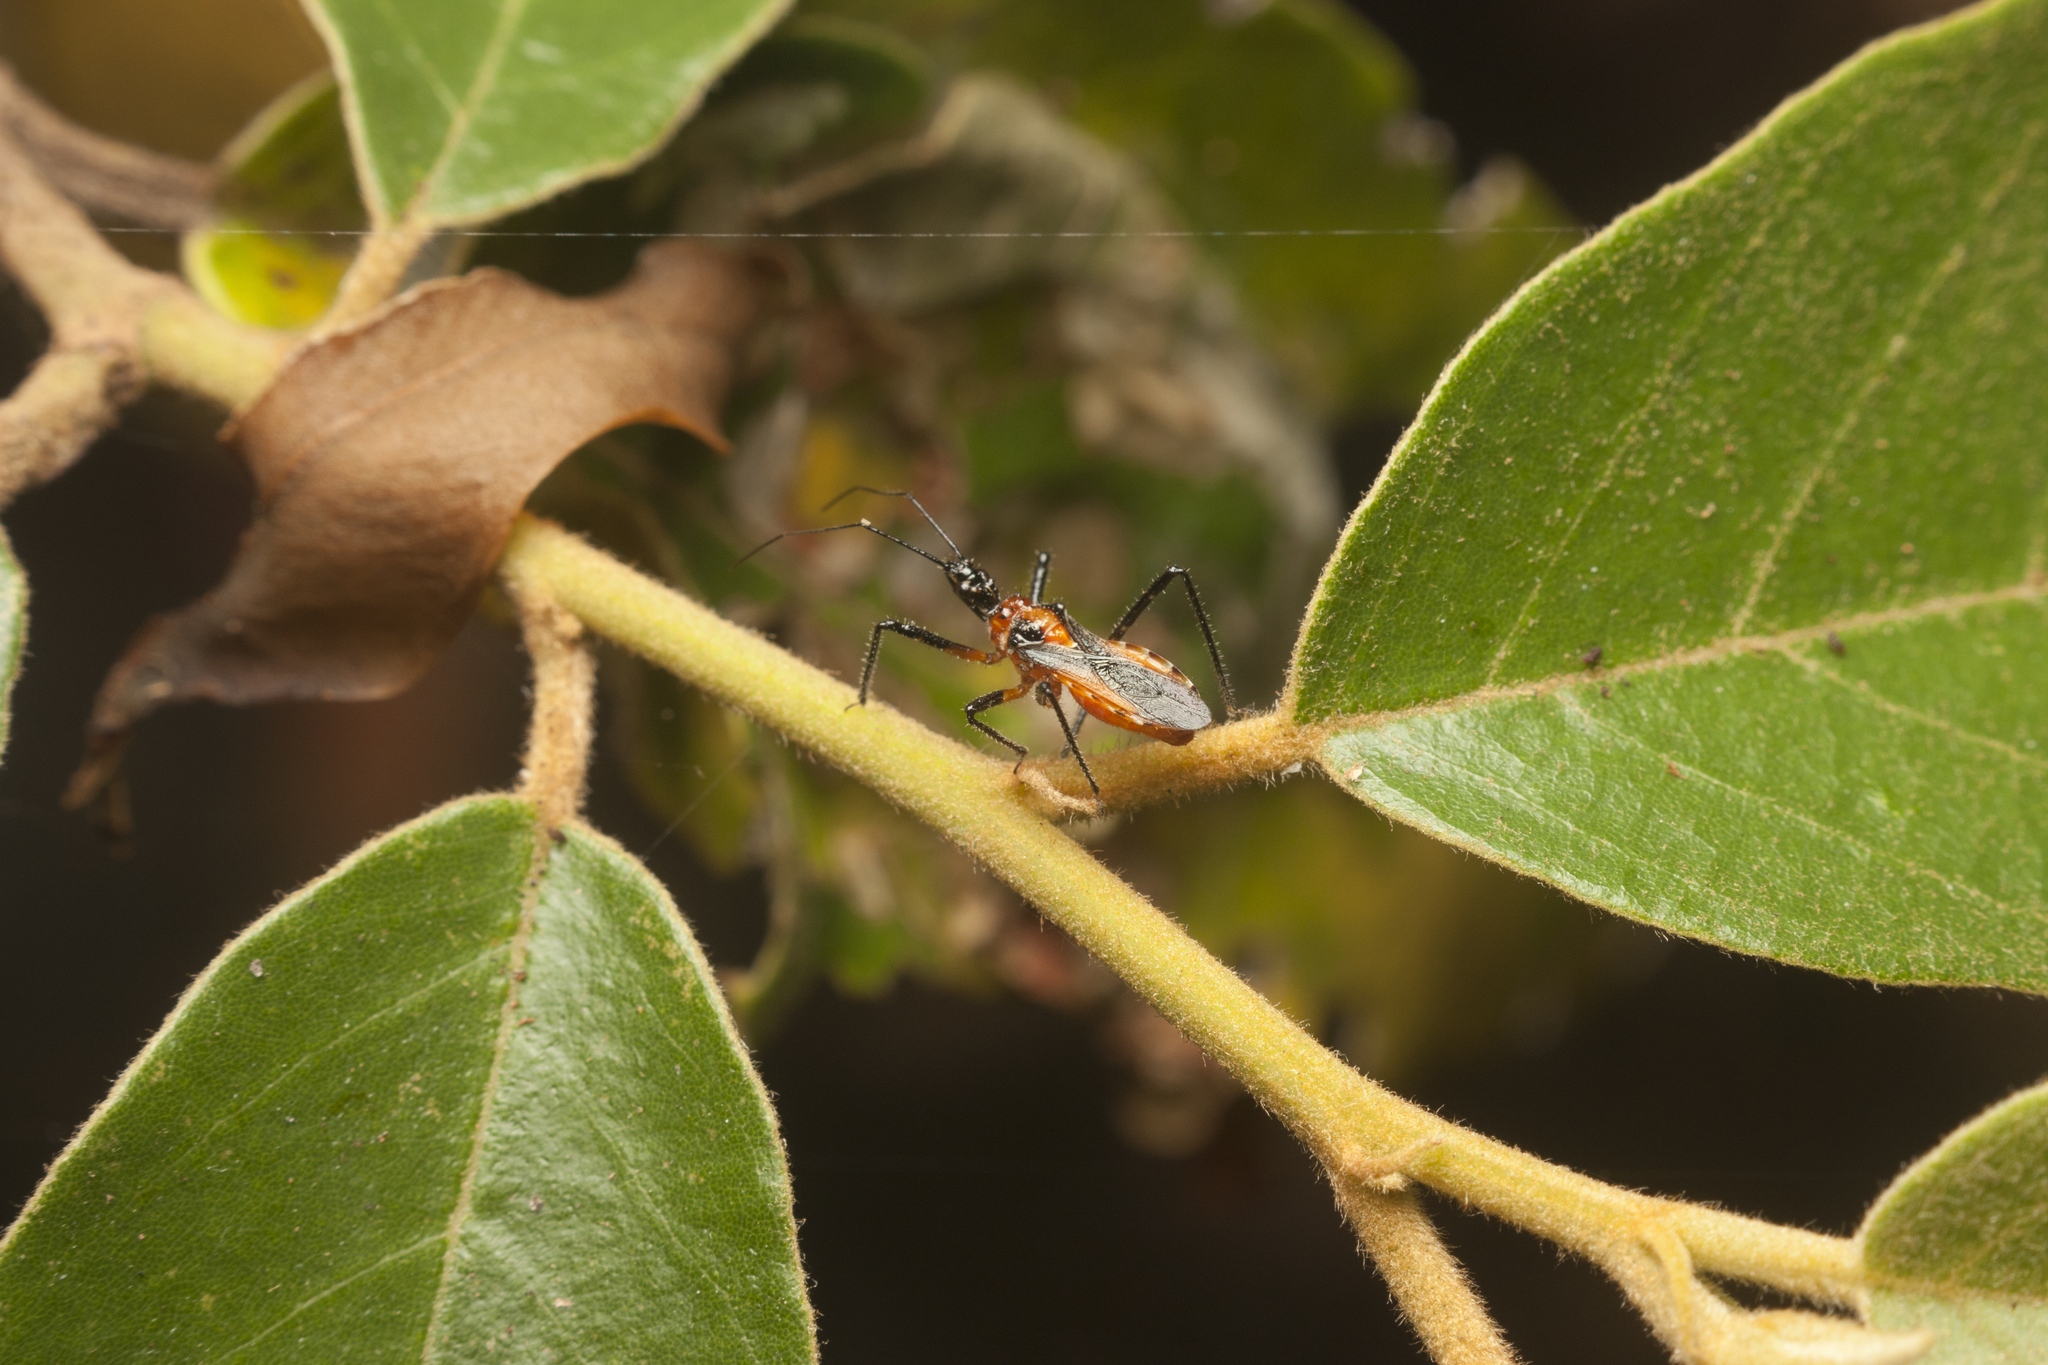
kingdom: Animalia
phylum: Arthropoda
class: Insecta
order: Hemiptera
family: Reduviidae
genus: Trachylestes
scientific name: Trachylestes aspericollis
